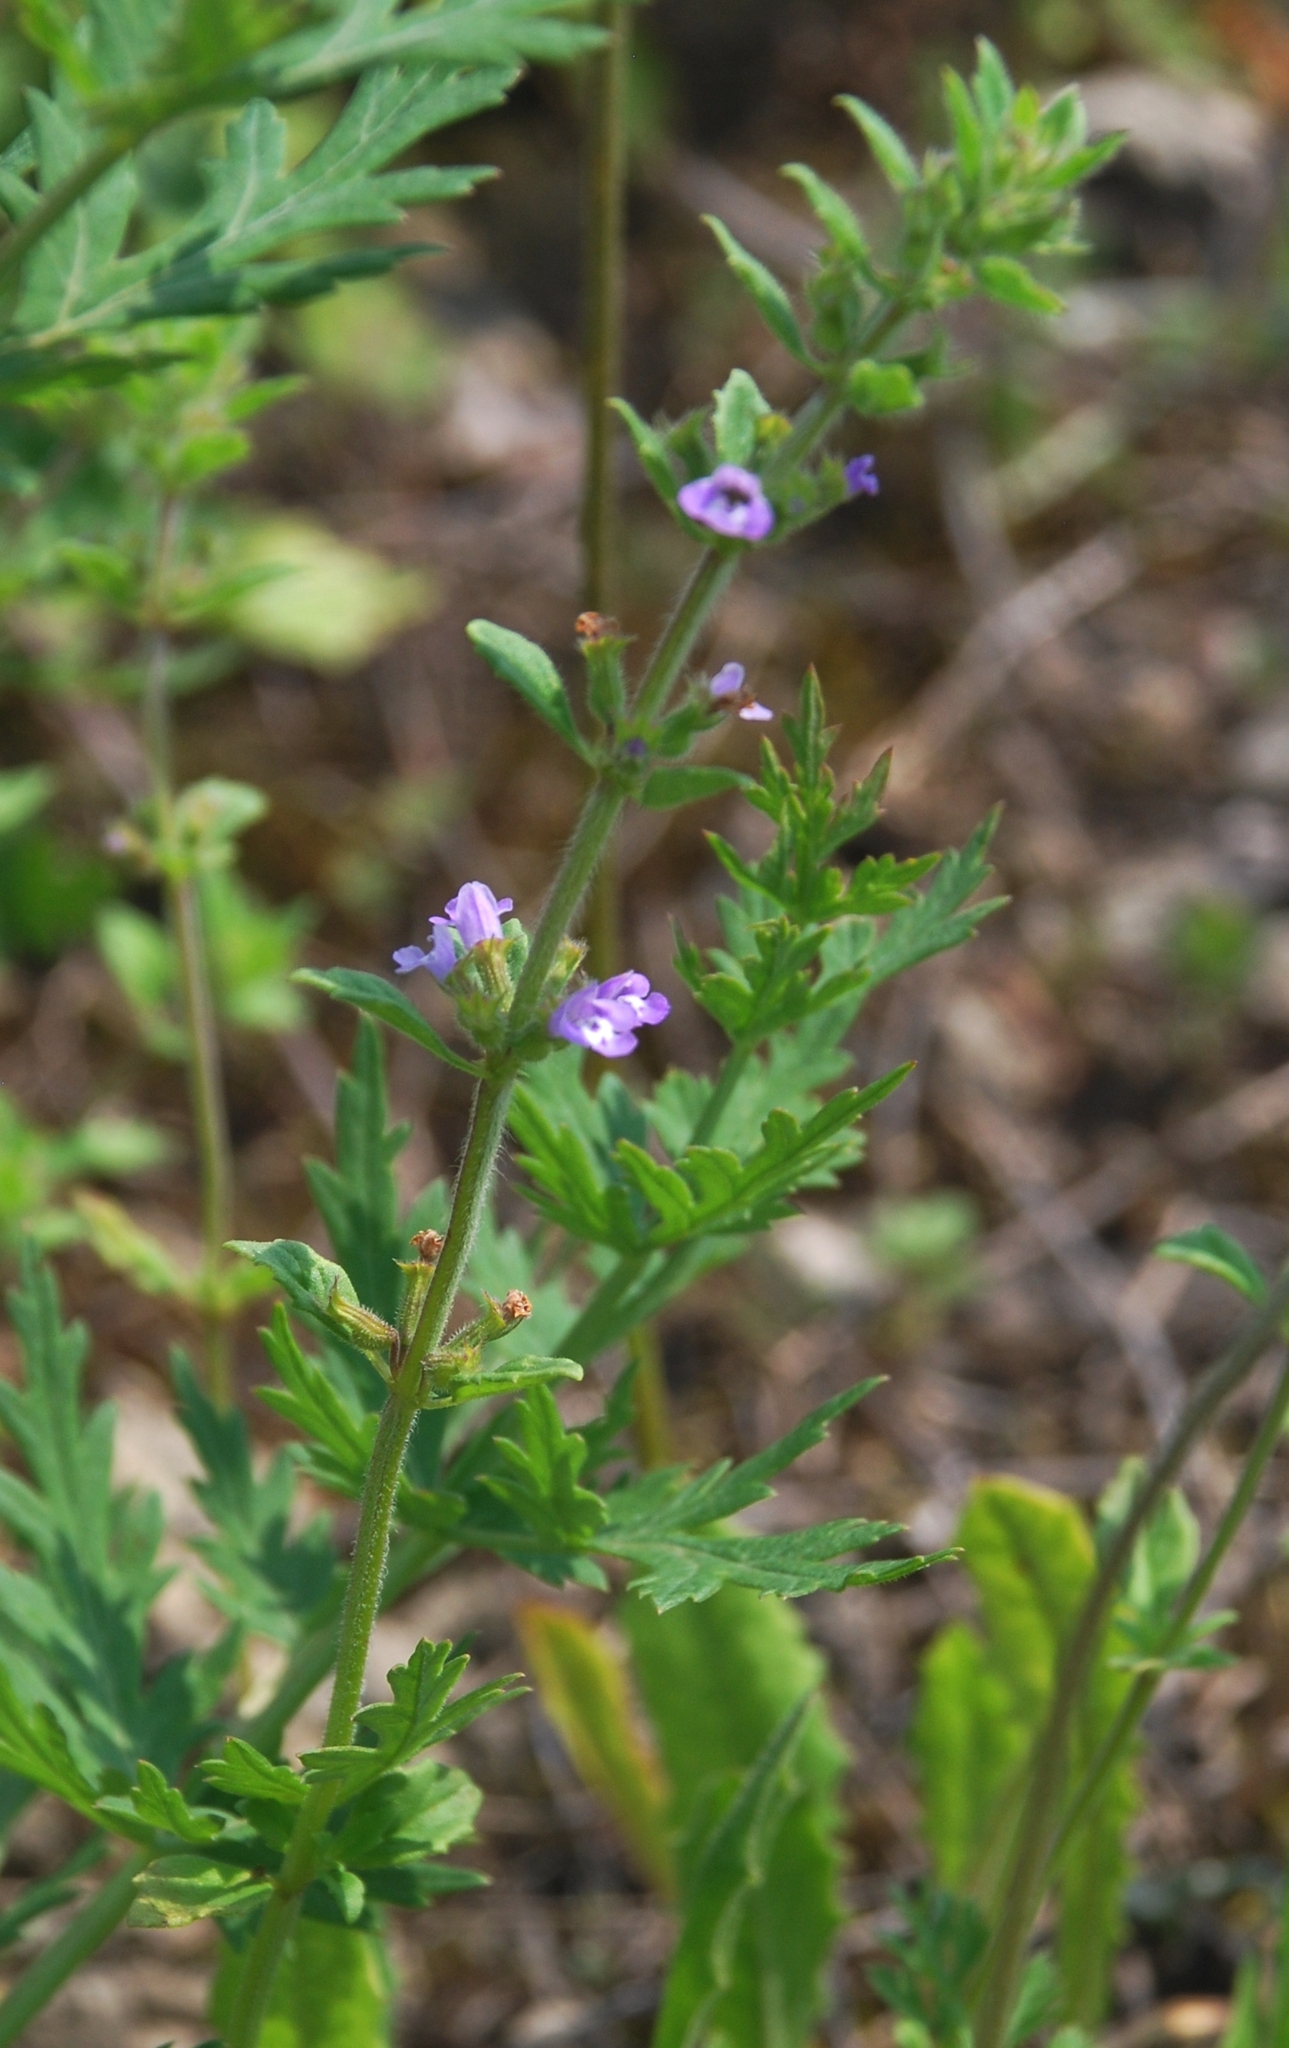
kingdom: Plantae
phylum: Tracheophyta
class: Magnoliopsida
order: Lamiales
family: Lamiaceae
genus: Clinopodium
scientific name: Clinopodium acinos
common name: Basil thyme
